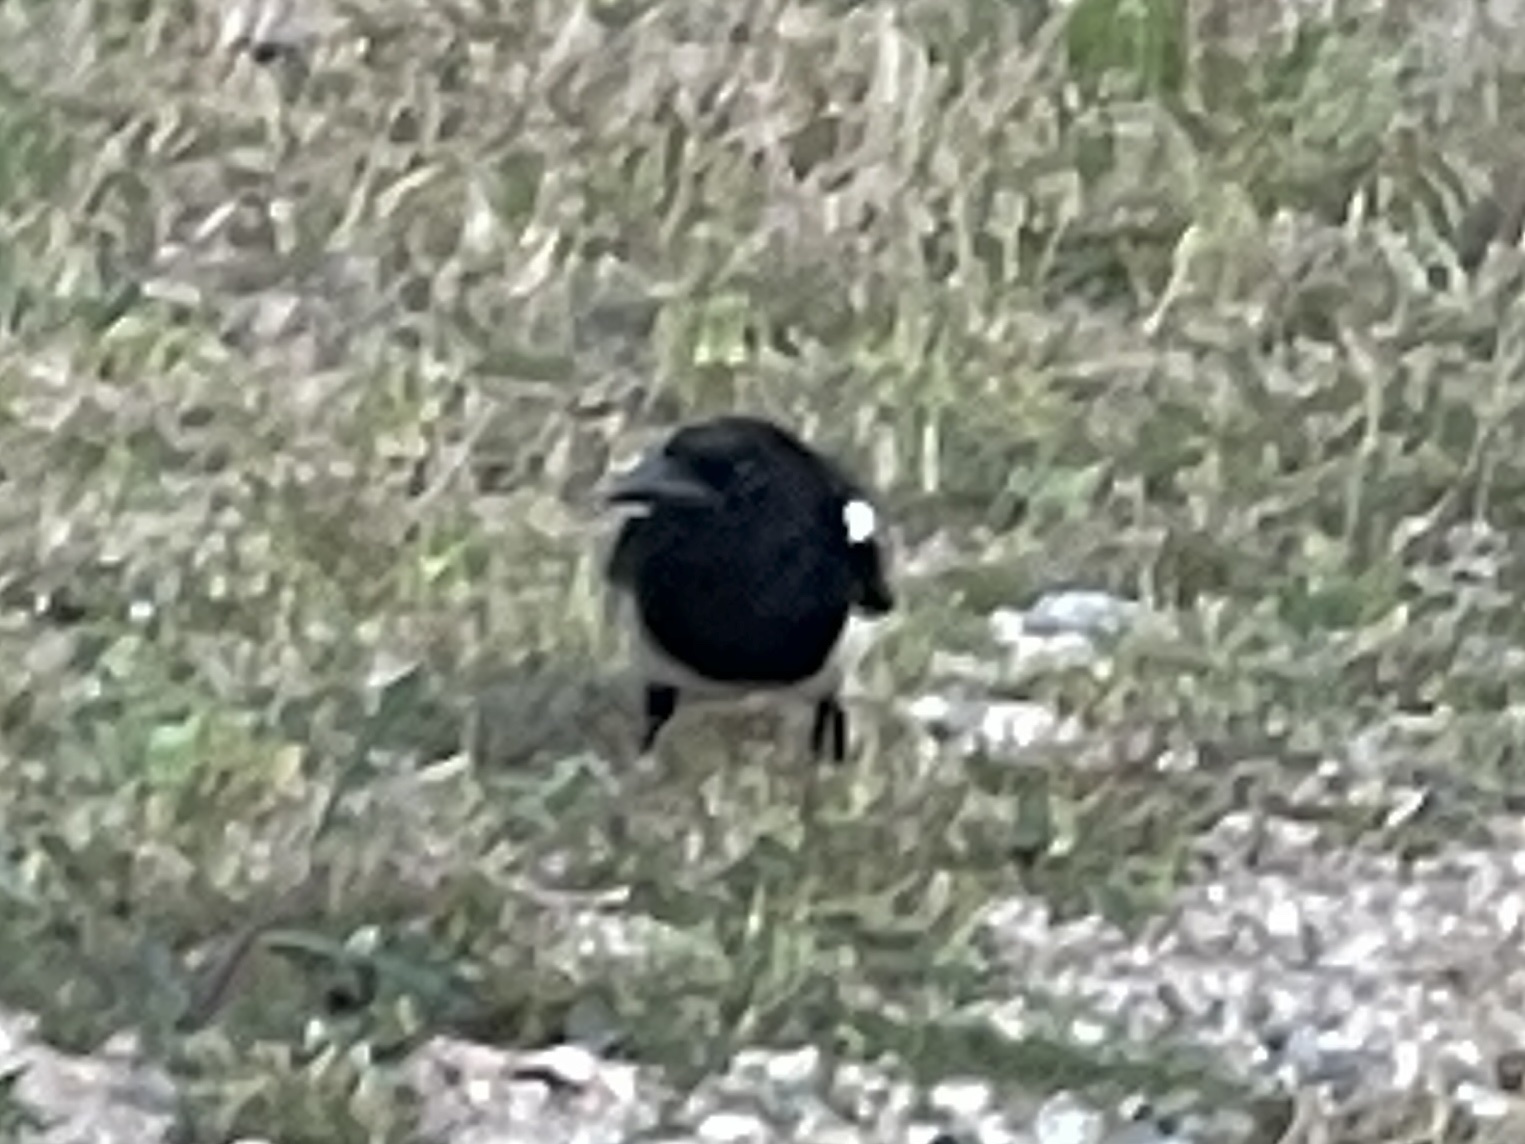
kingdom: Animalia
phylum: Chordata
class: Aves
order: Passeriformes
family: Corvidae
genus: Pica
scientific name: Pica hudsonia
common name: Black-billed magpie
